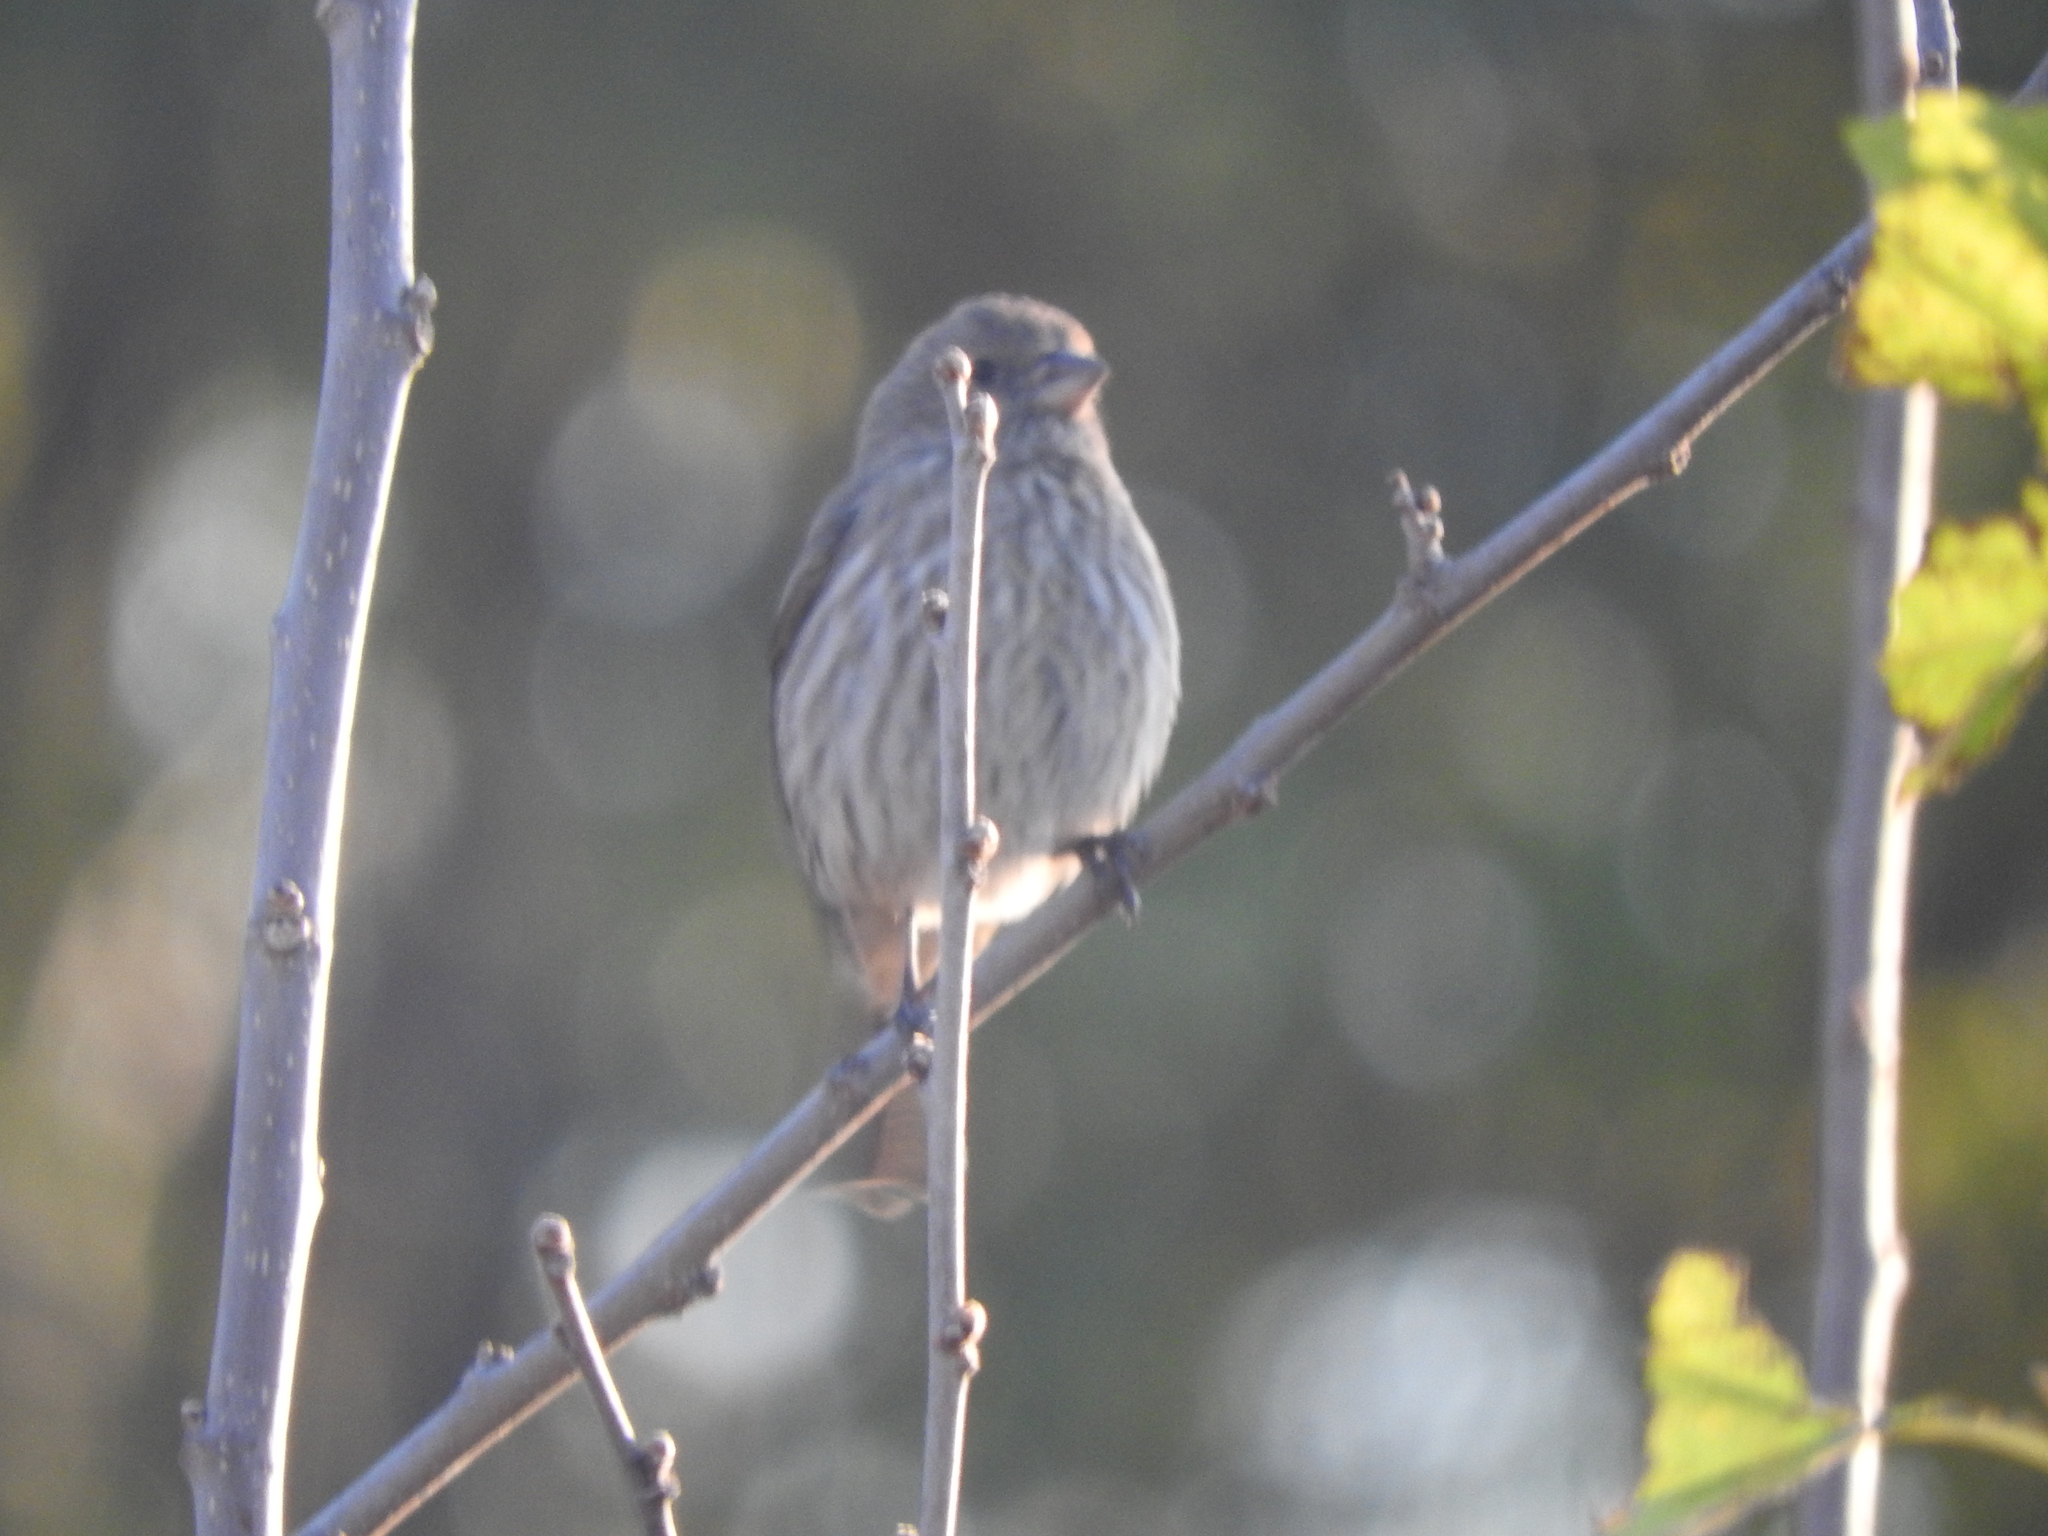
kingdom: Animalia
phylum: Chordata
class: Aves
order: Passeriformes
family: Fringillidae
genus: Haemorhous
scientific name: Haemorhous mexicanus
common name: House finch
